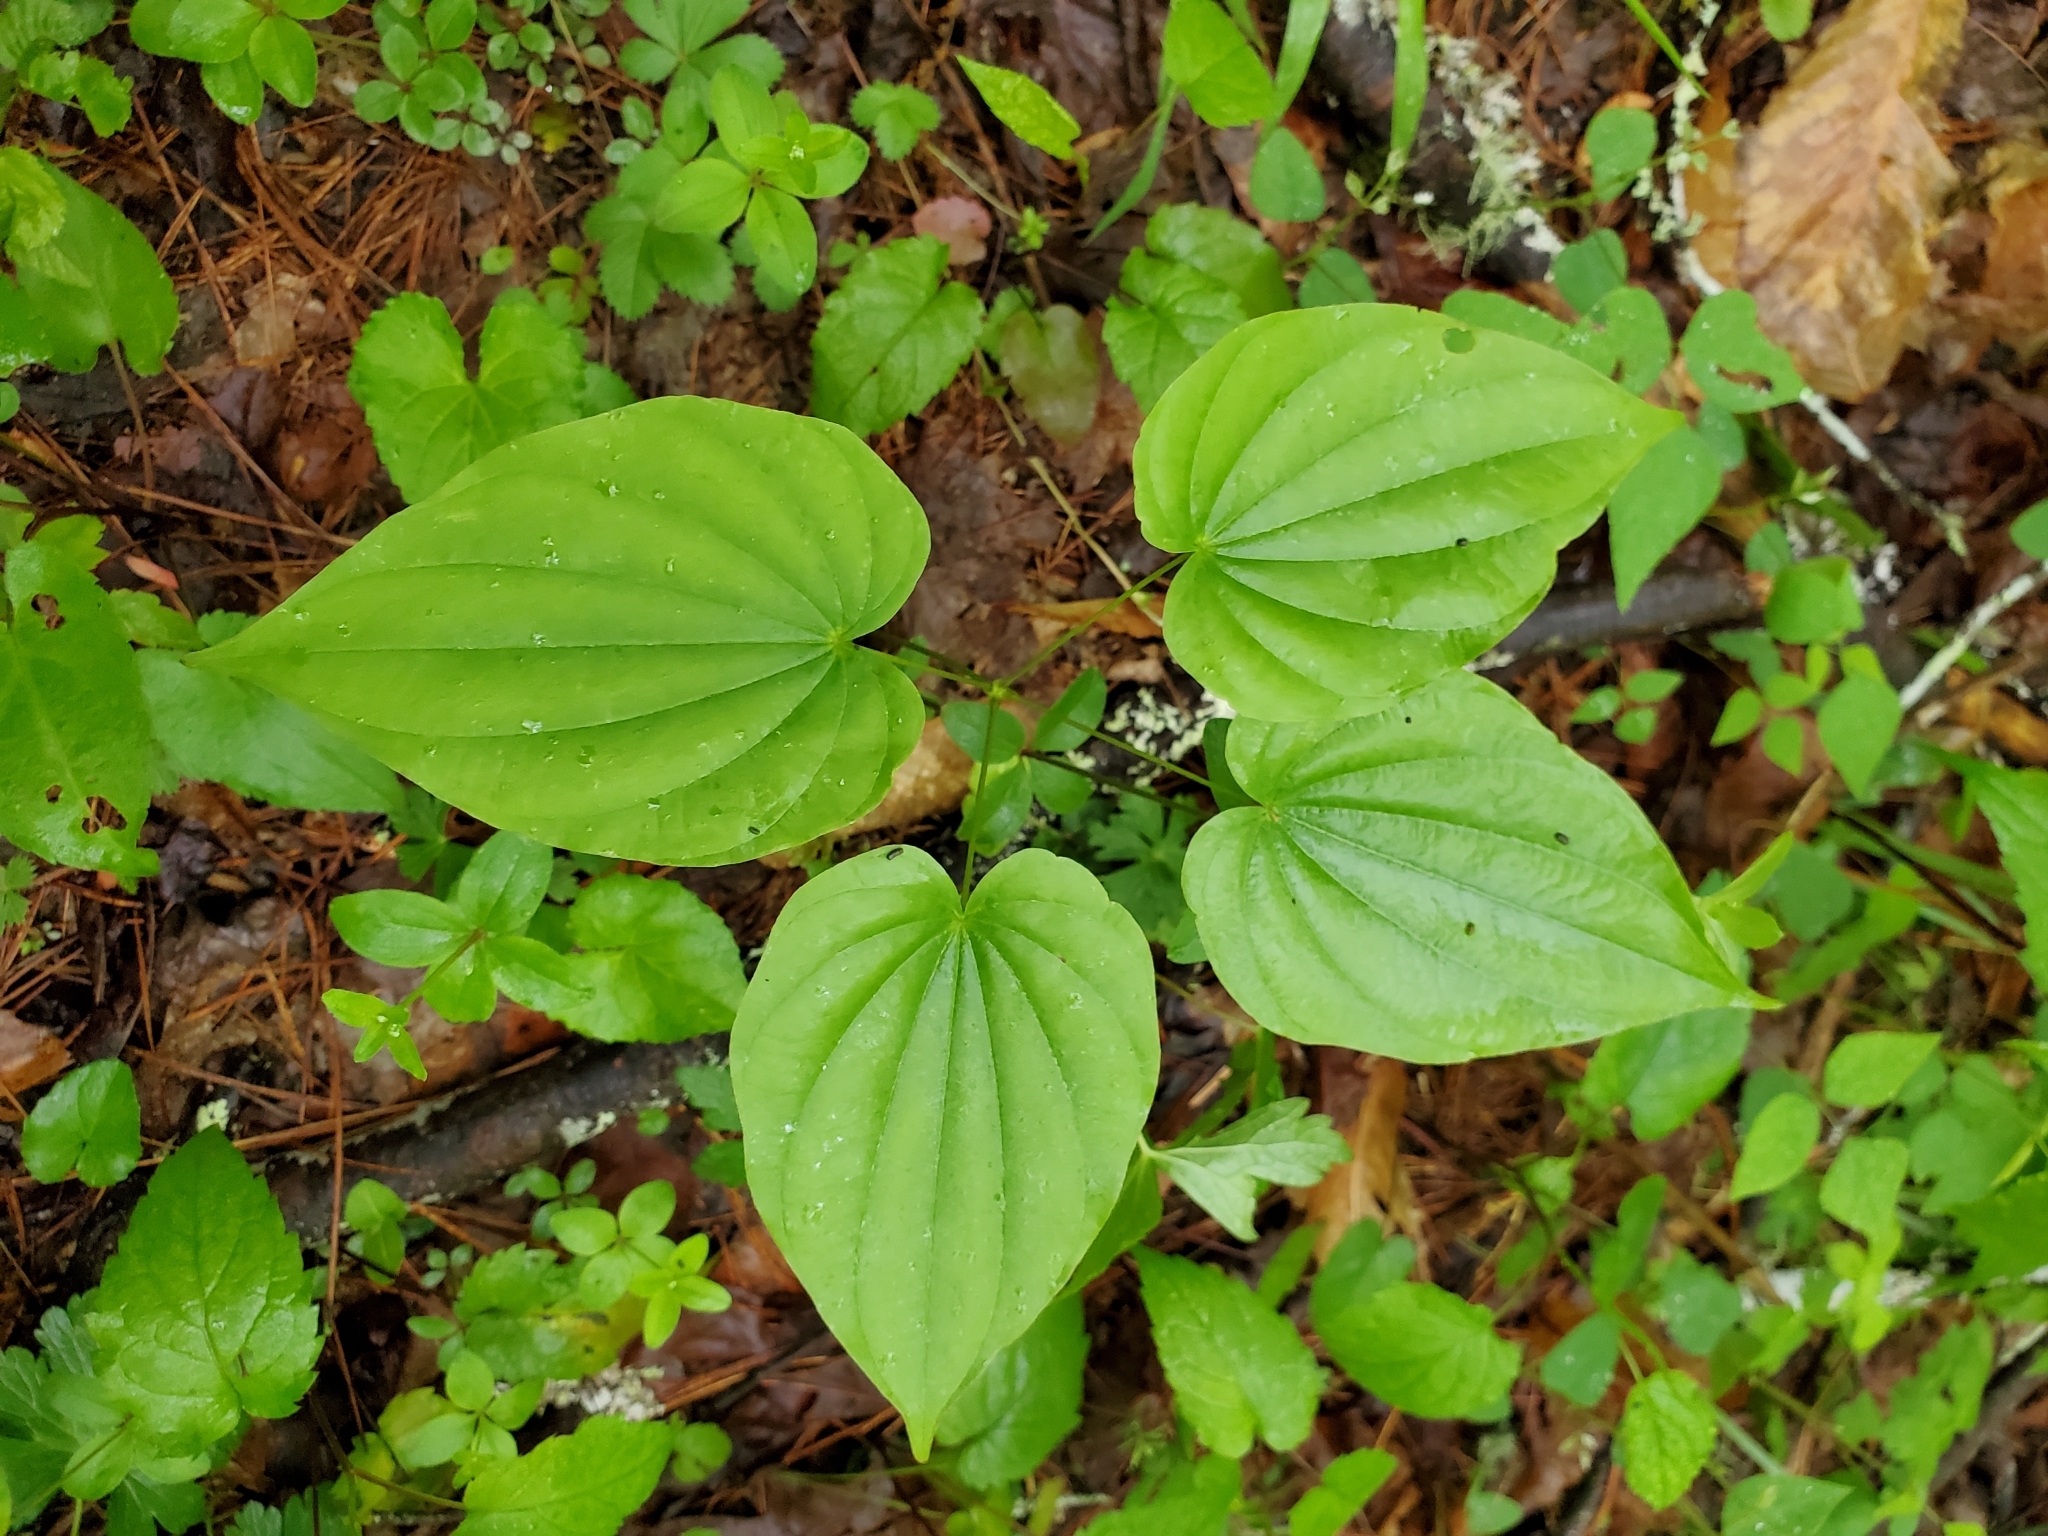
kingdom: Plantae
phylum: Tracheophyta
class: Liliopsida
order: Dioscoreales
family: Dioscoreaceae
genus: Dioscorea
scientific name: Dioscorea villosa
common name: Wild yam
